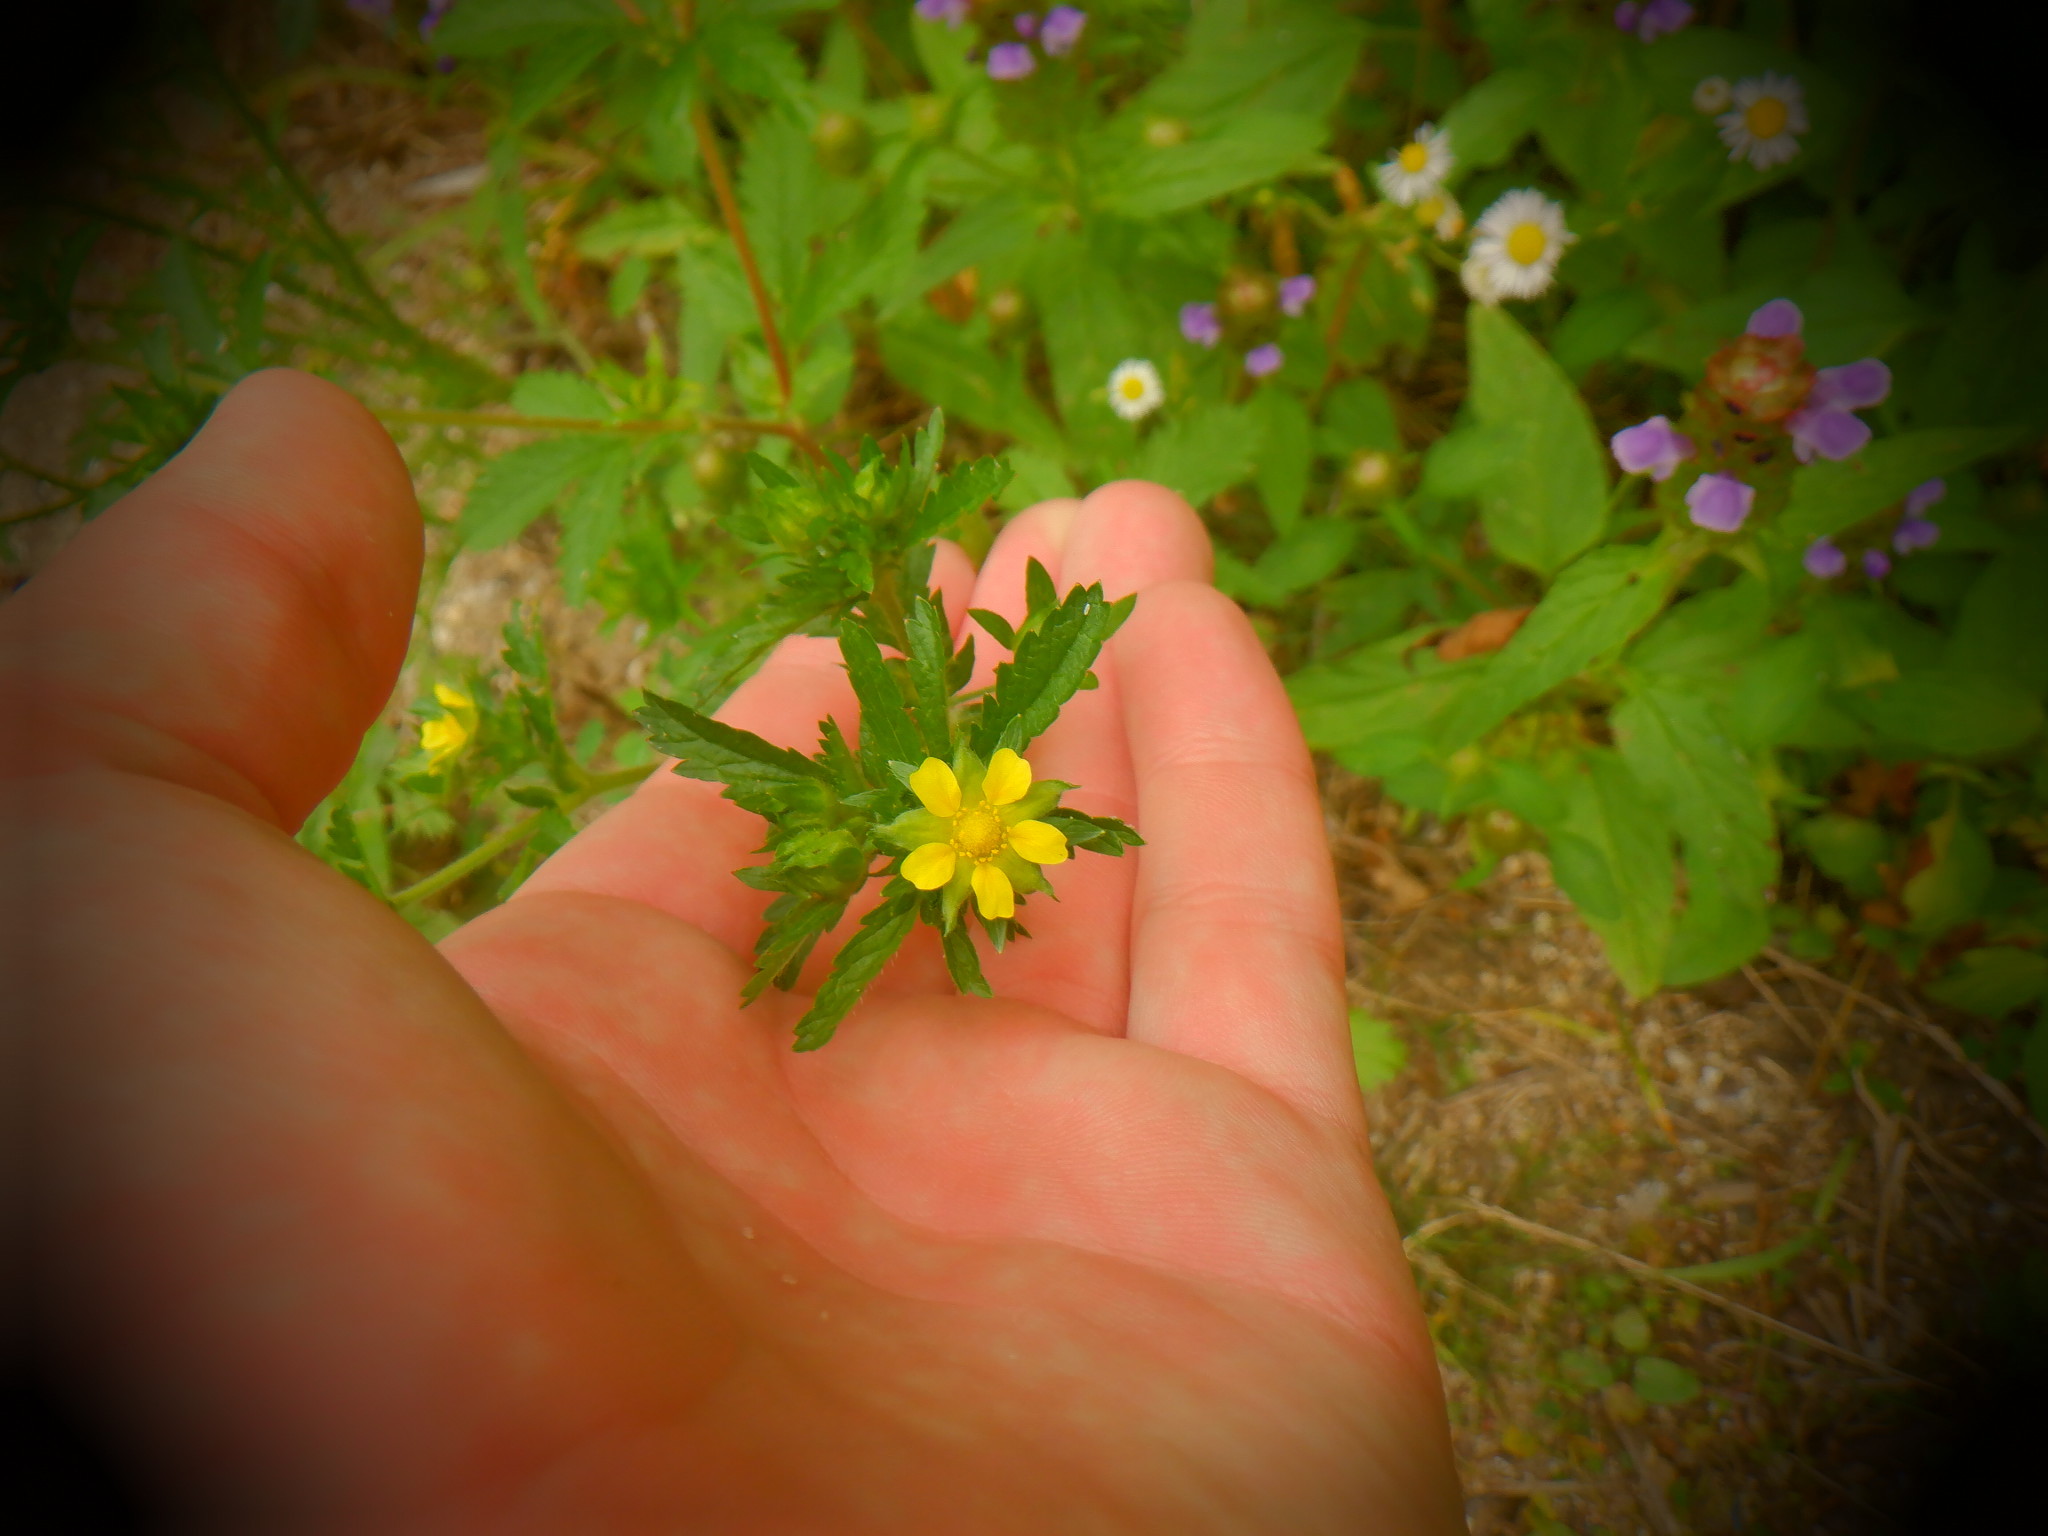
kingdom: Plantae
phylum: Tracheophyta
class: Magnoliopsida
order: Rosales
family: Rosaceae
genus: Potentilla
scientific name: Potentilla norvegica
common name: Ternate-leaved cinquefoil
